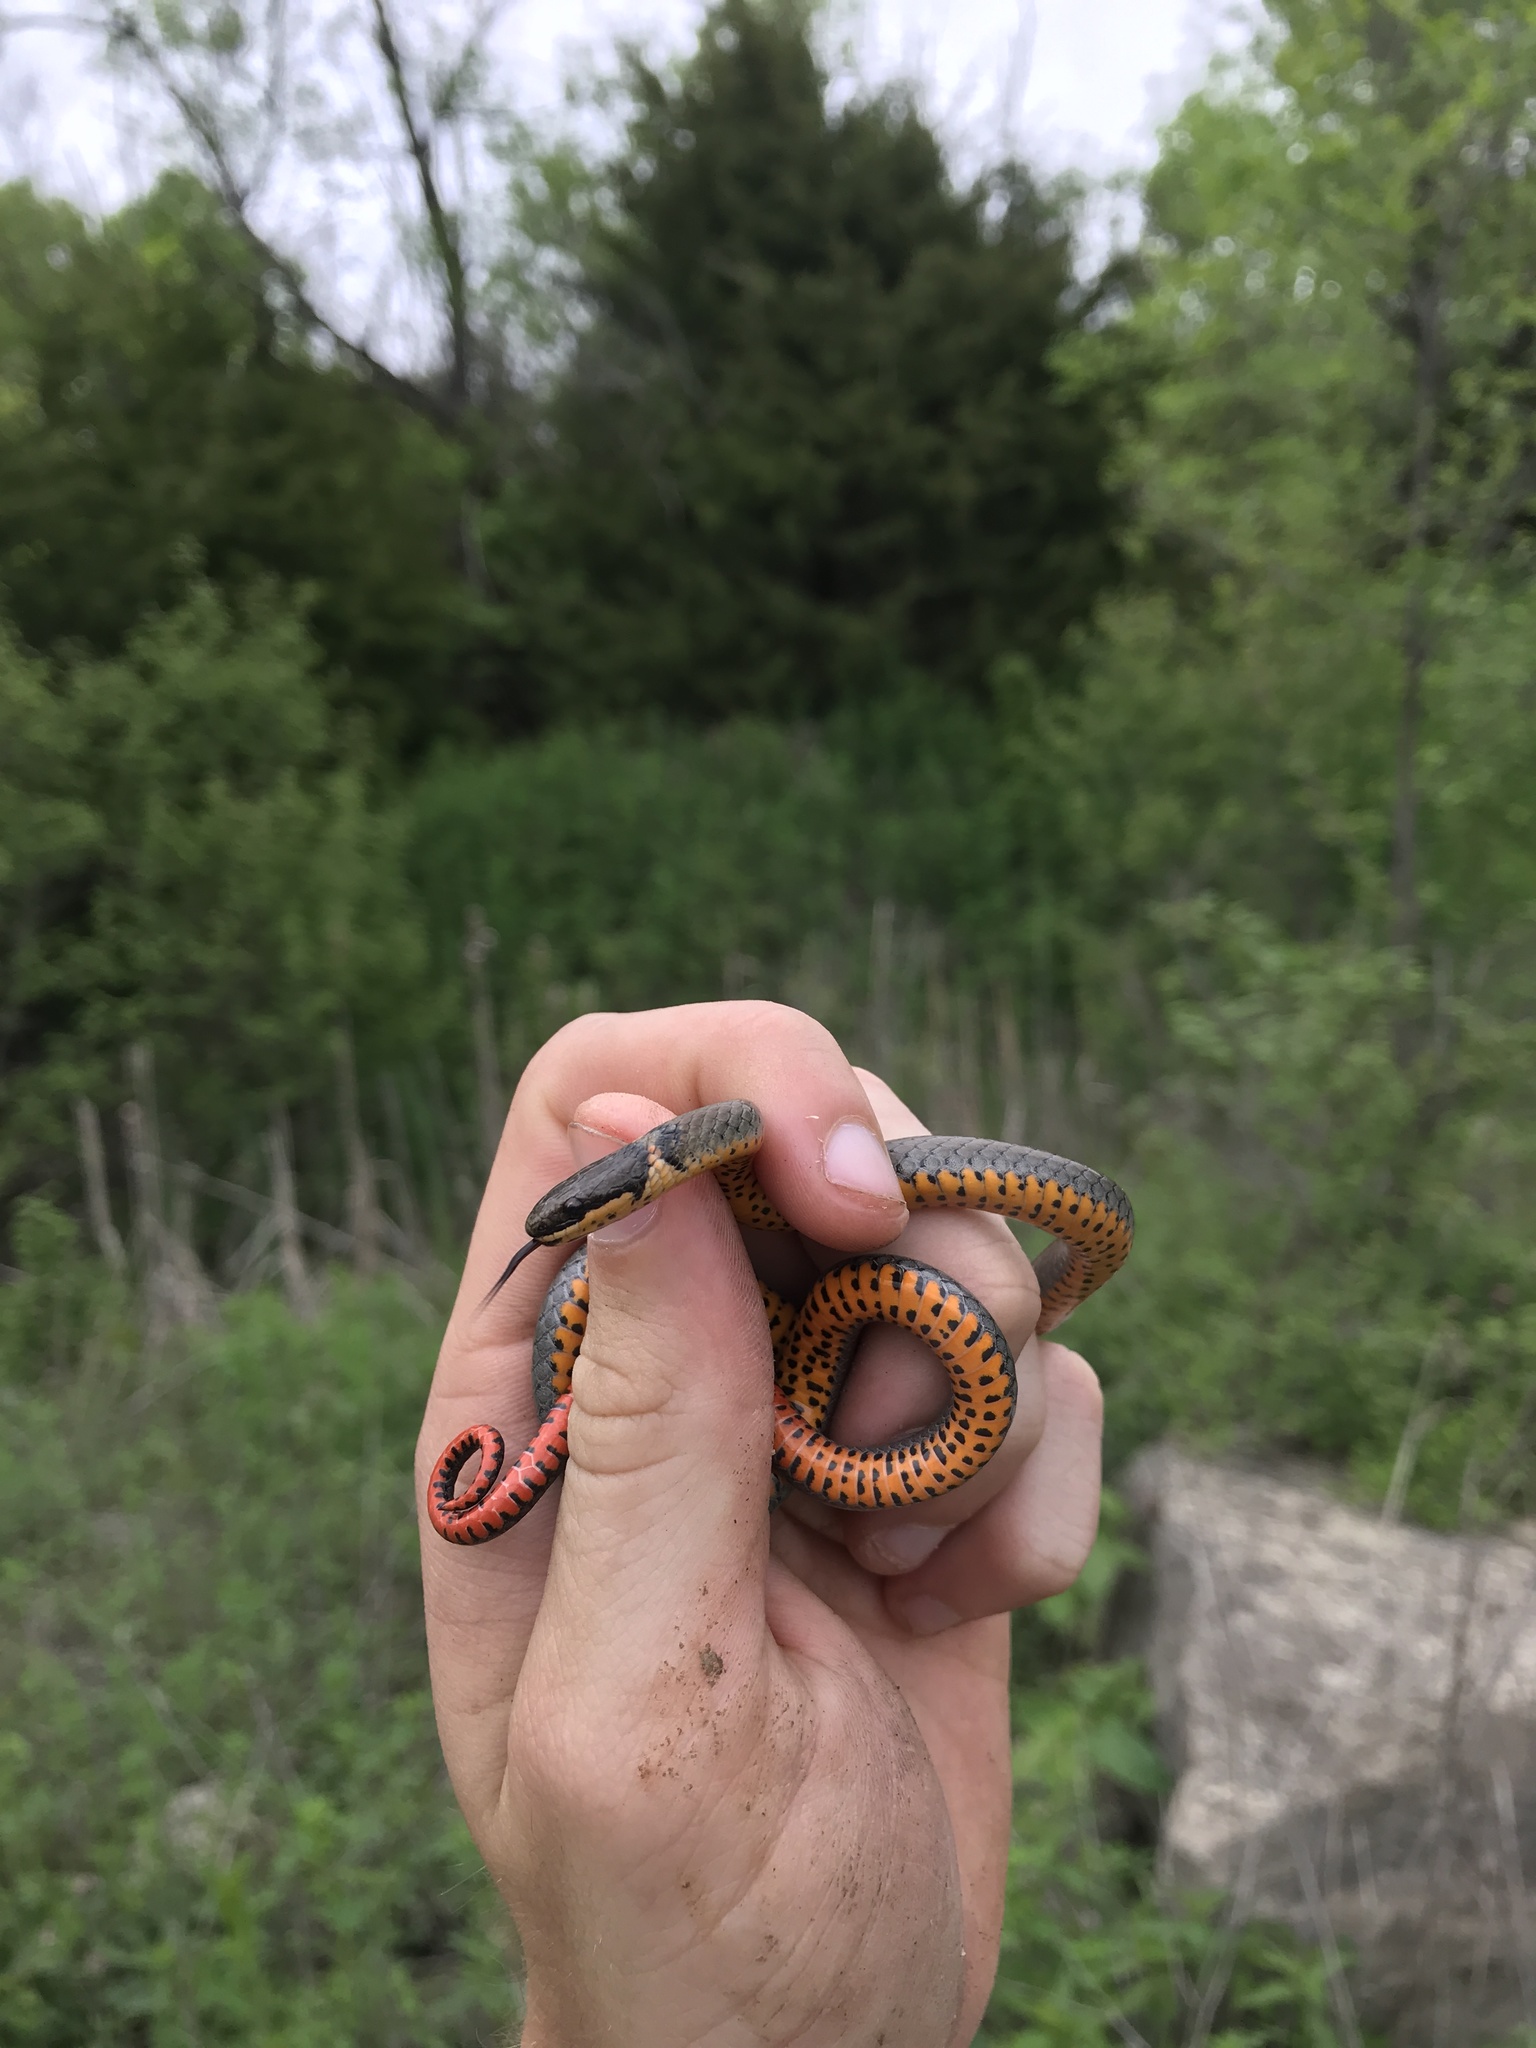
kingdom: Animalia
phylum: Chordata
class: Squamata
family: Colubridae
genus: Diadophis
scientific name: Diadophis punctatus
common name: Ringneck snake
